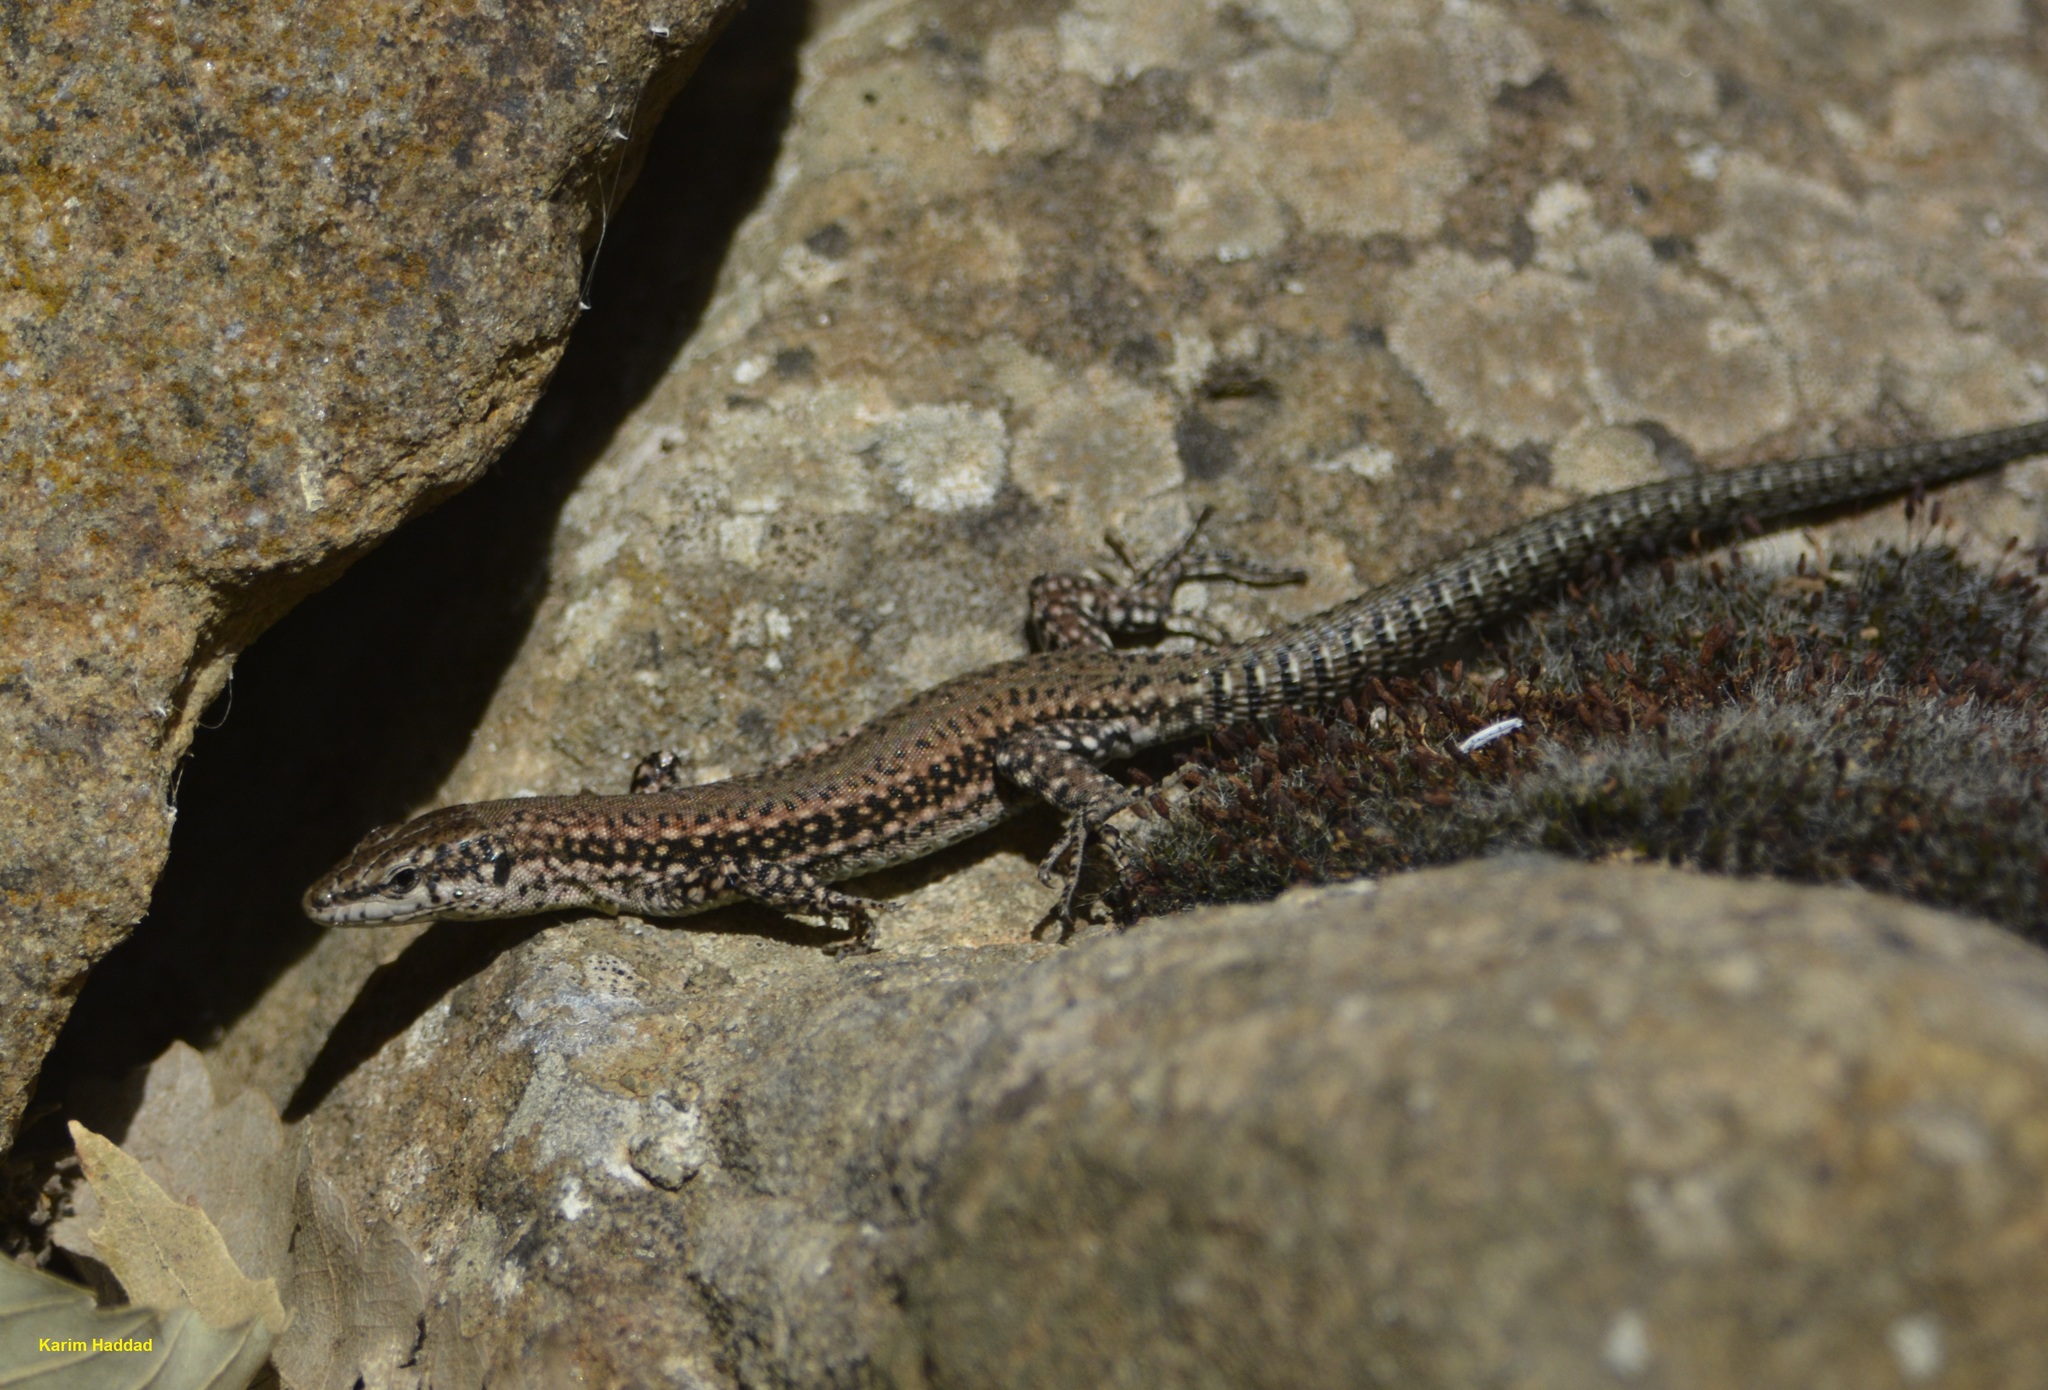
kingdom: Animalia
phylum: Chordata
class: Squamata
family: Lacertidae
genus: Podarcis
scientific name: Podarcis vaucheri
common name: Vaucher's wall lizard
